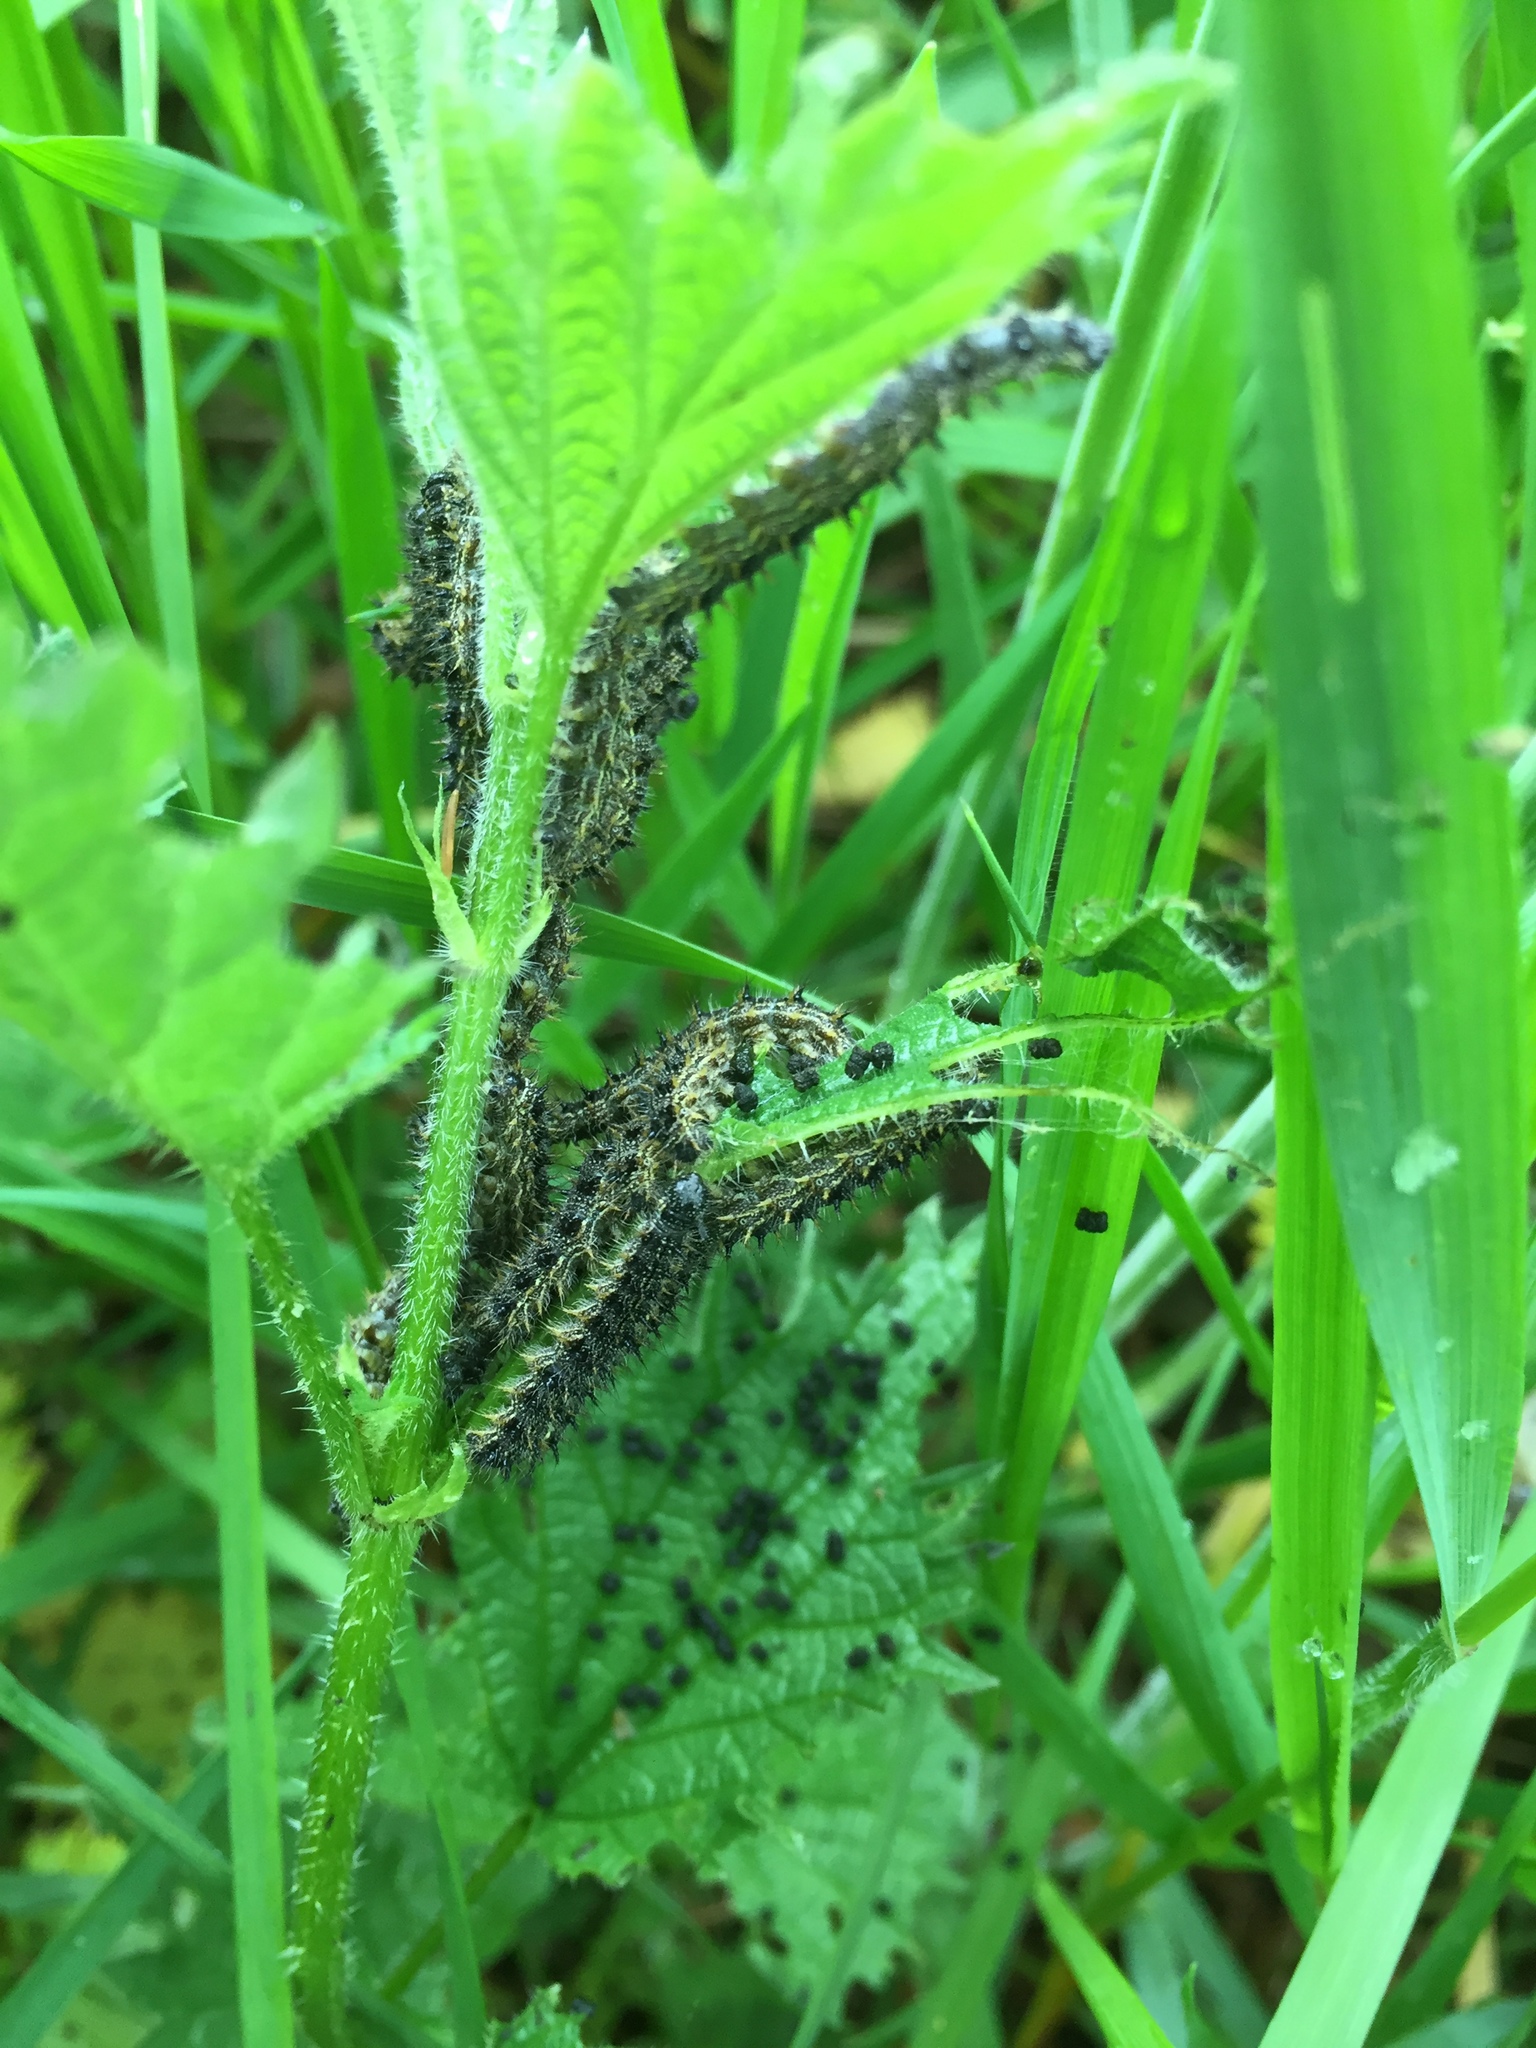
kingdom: Animalia
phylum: Arthropoda
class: Insecta
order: Lepidoptera
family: Nymphalidae
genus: Aglais
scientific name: Aglais urticae
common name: Small tortoiseshell
